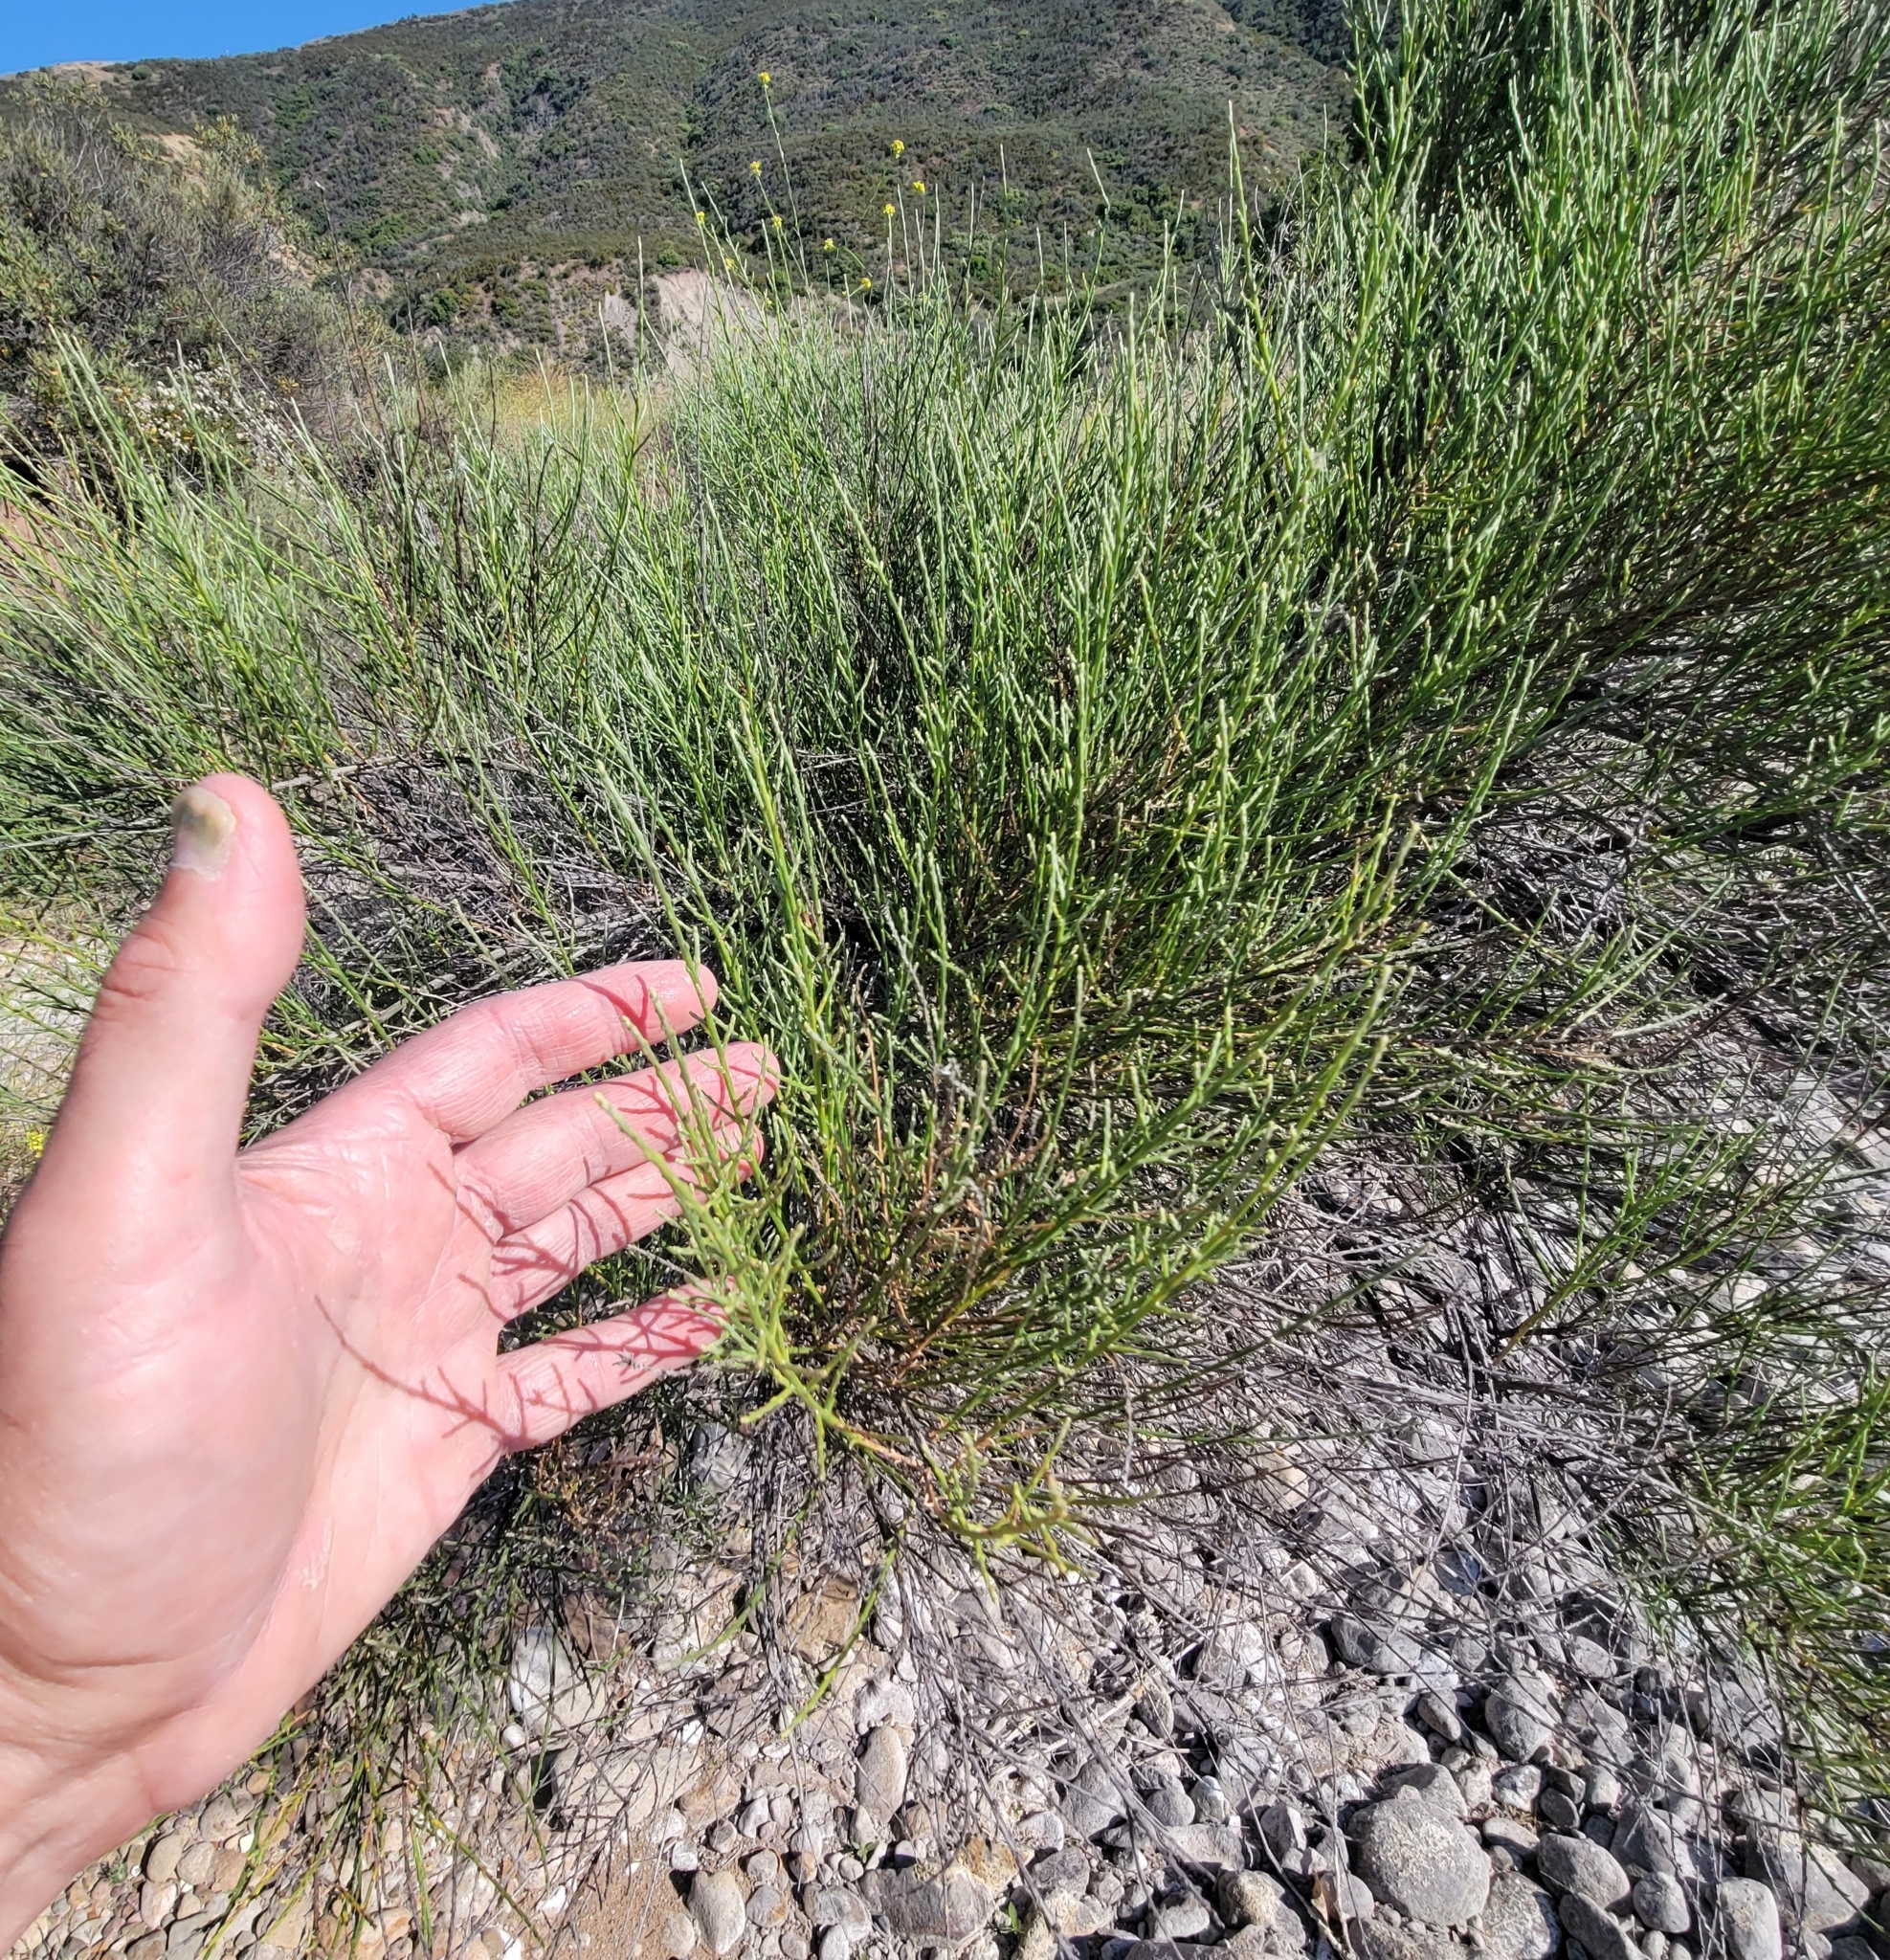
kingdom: Plantae
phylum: Tracheophyta
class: Magnoliopsida
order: Asterales
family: Asteraceae
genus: Lepidospartum
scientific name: Lepidospartum squamatum
